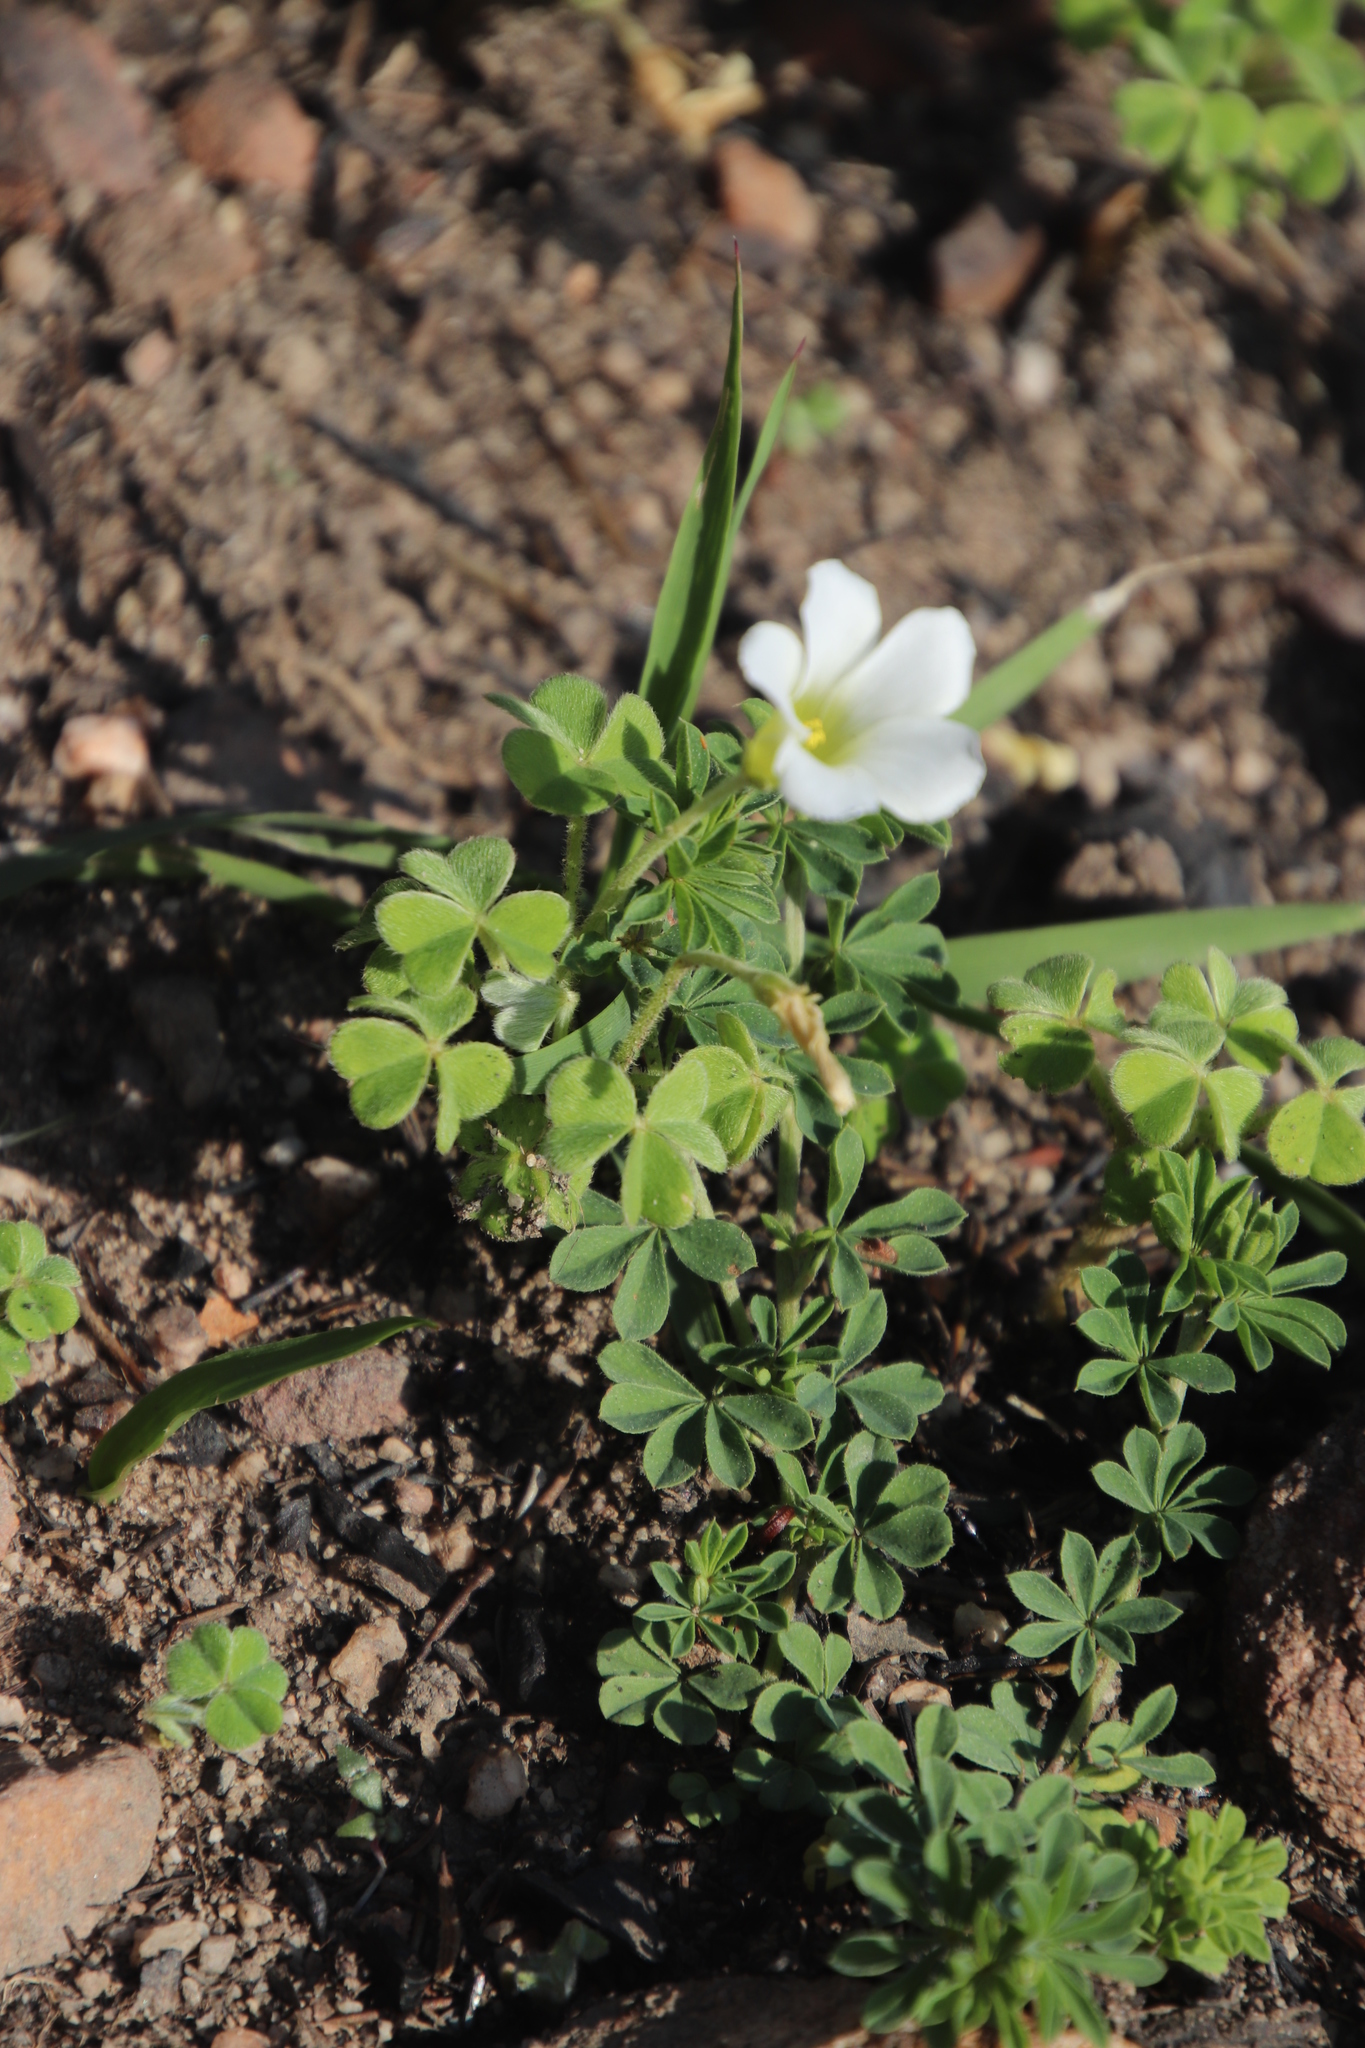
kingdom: Plantae
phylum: Tracheophyta
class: Magnoliopsida
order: Oxalidales
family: Oxalidaceae
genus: Oxalis
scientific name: Oxalis lanata
